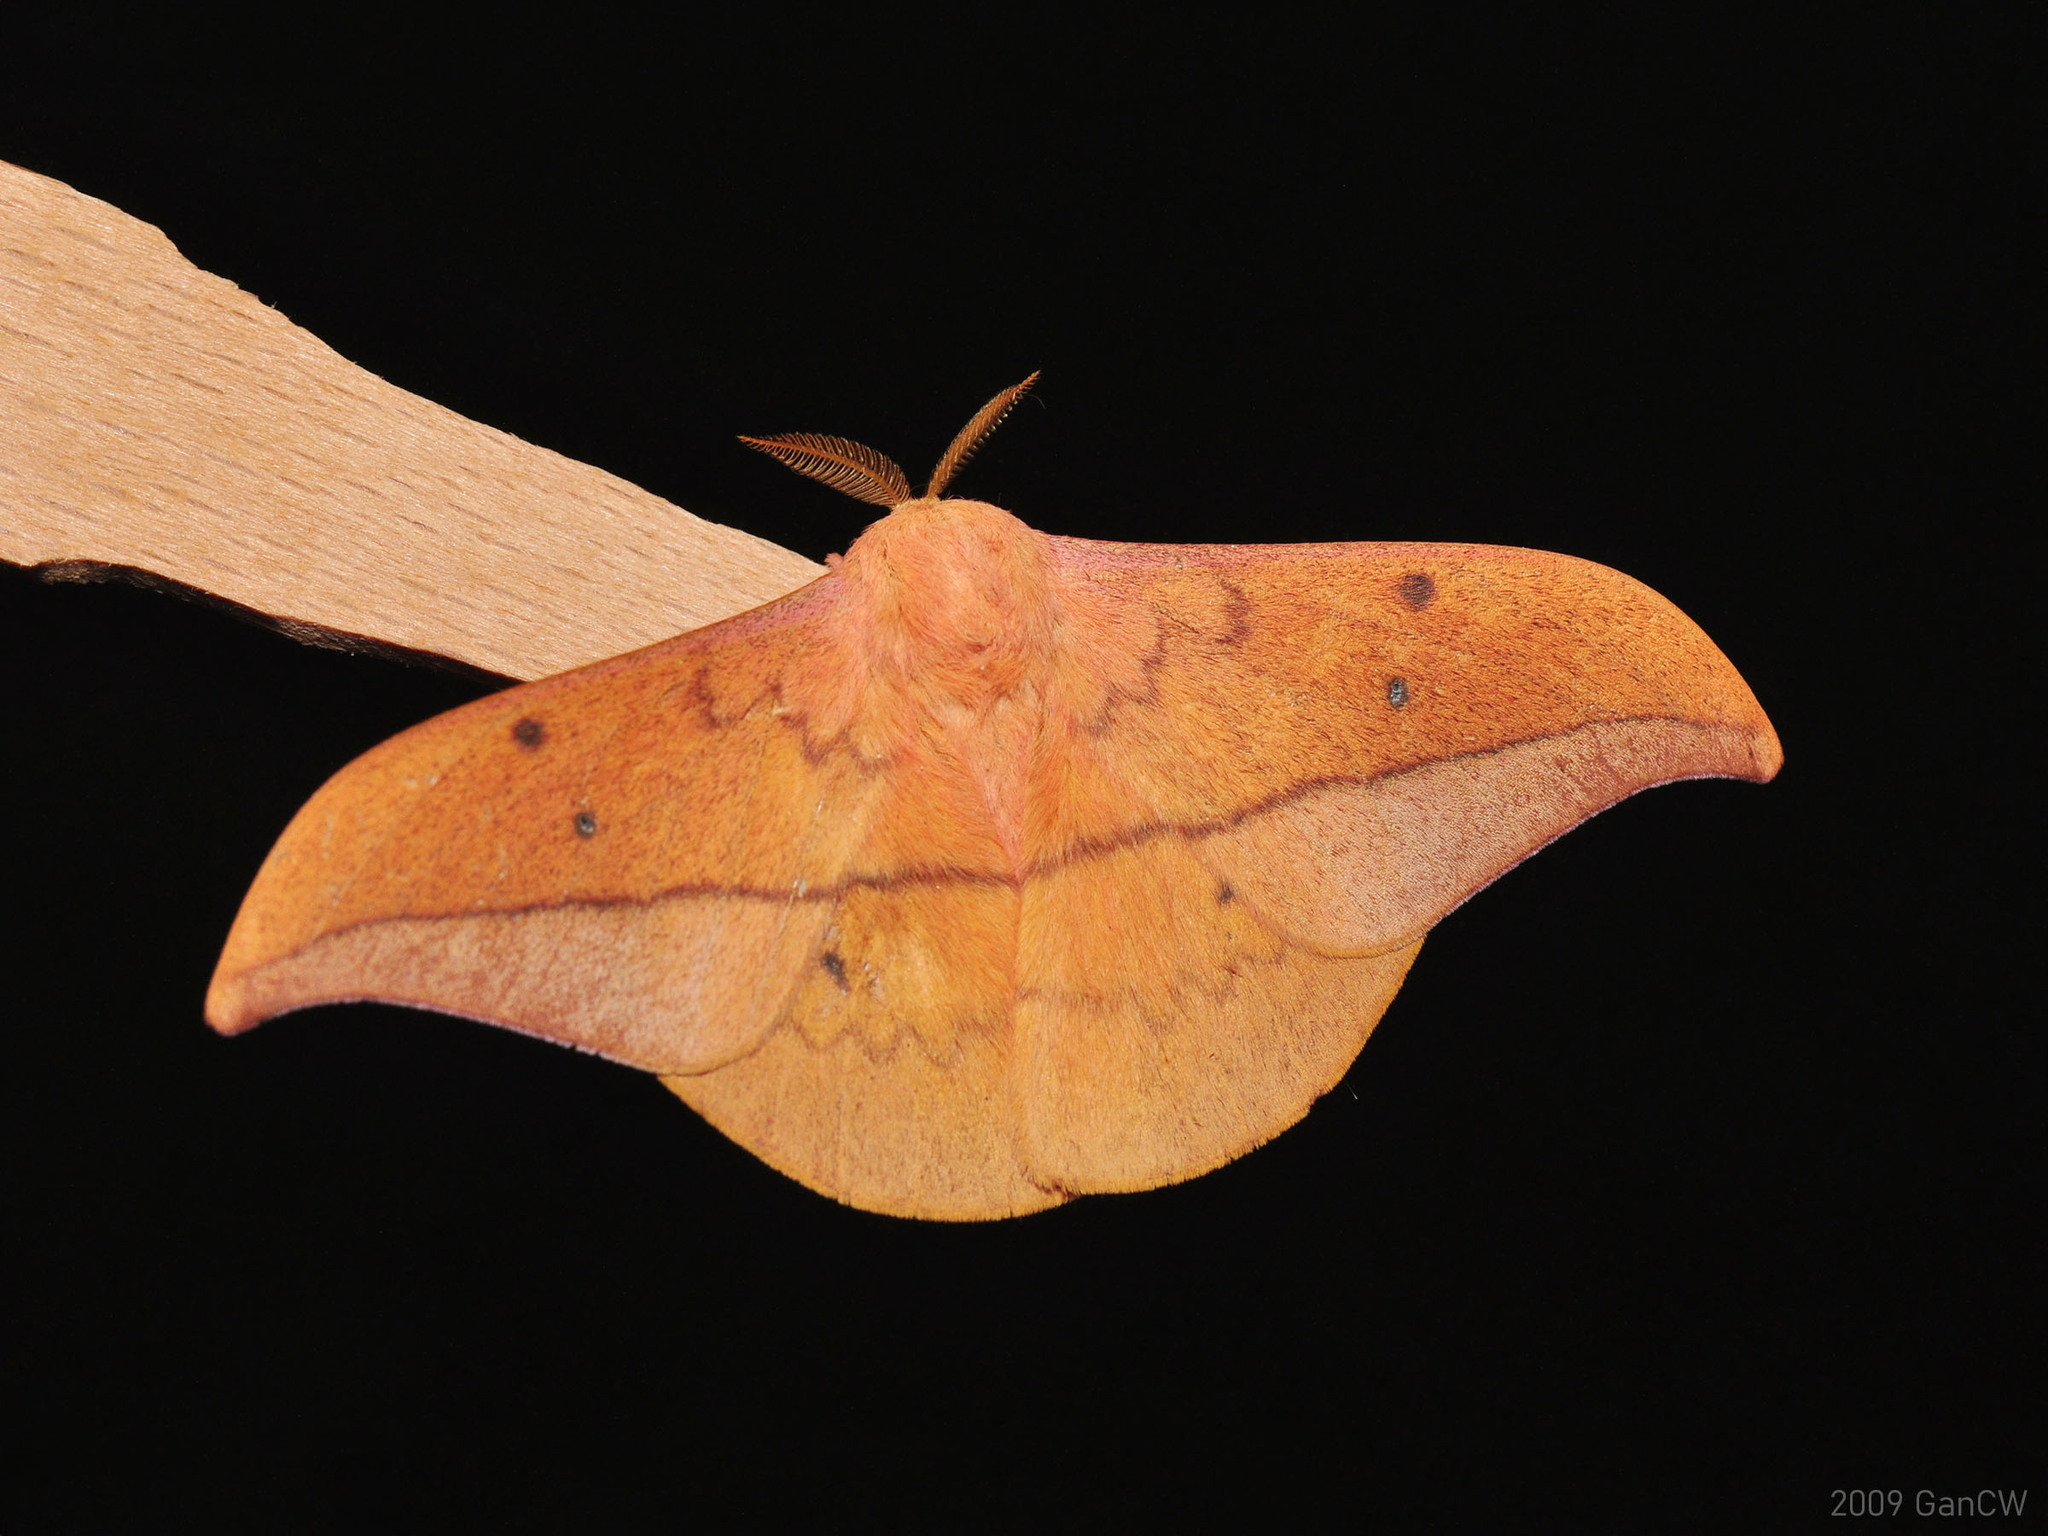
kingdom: Animalia
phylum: Arthropoda
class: Insecta
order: Lepidoptera
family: Saturniidae
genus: Cricula
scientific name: Cricula trifenestrata
